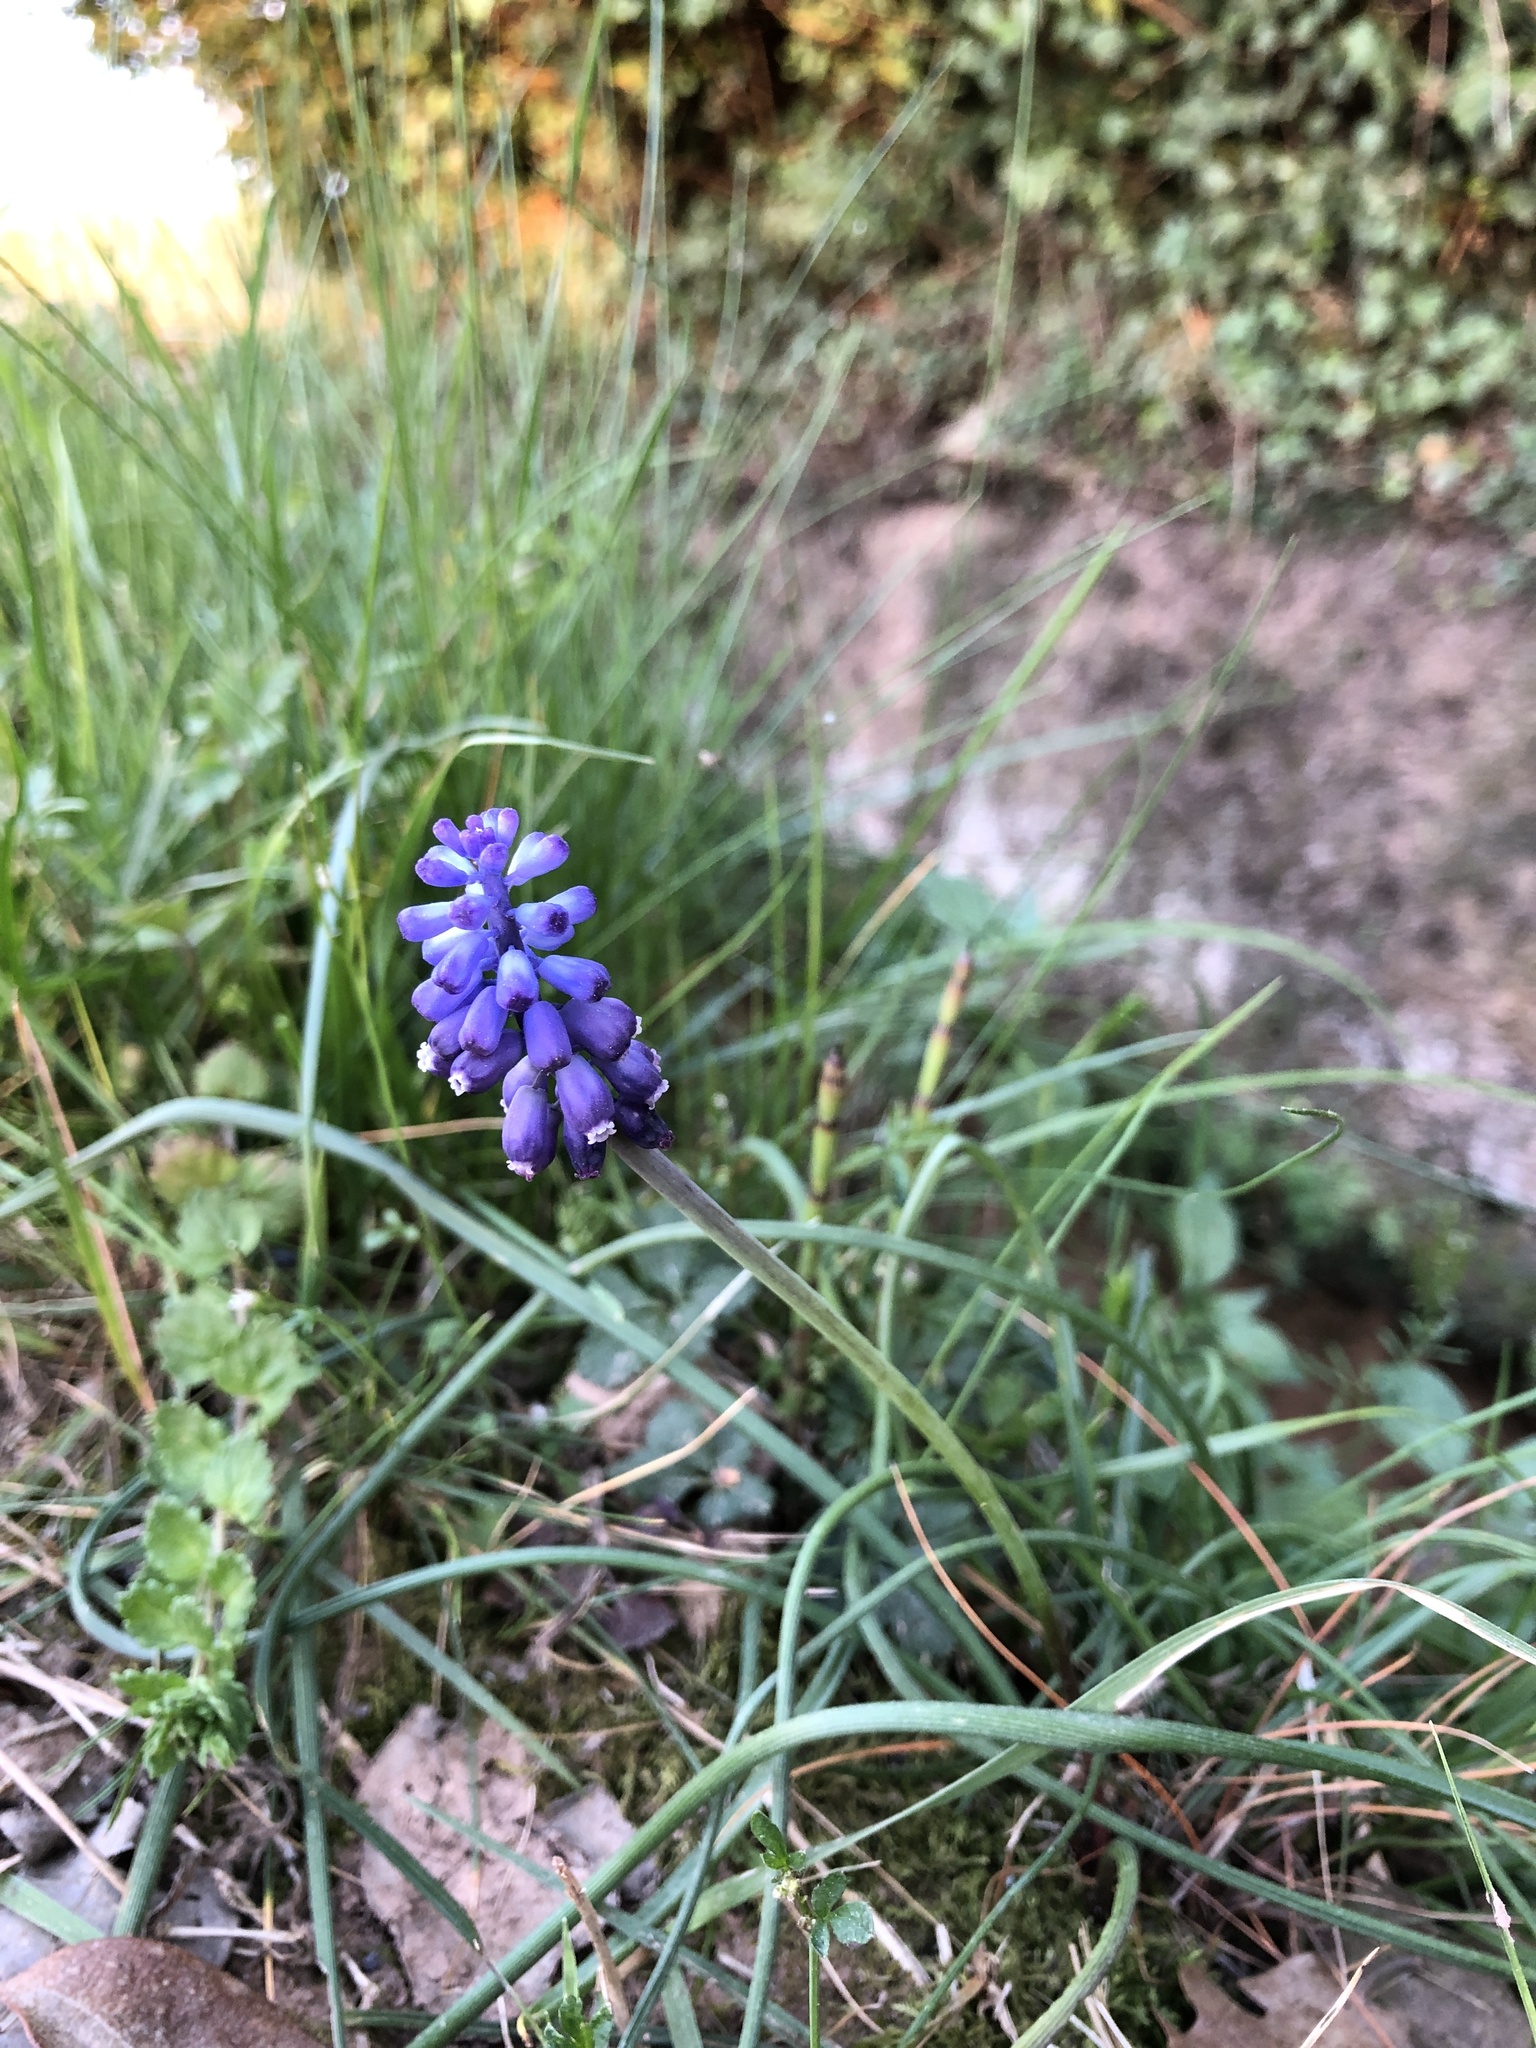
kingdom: Plantae
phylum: Tracheophyta
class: Liliopsida
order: Asparagales
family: Asparagaceae
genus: Muscari
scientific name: Muscari neglectum
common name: Grape-hyacinth
